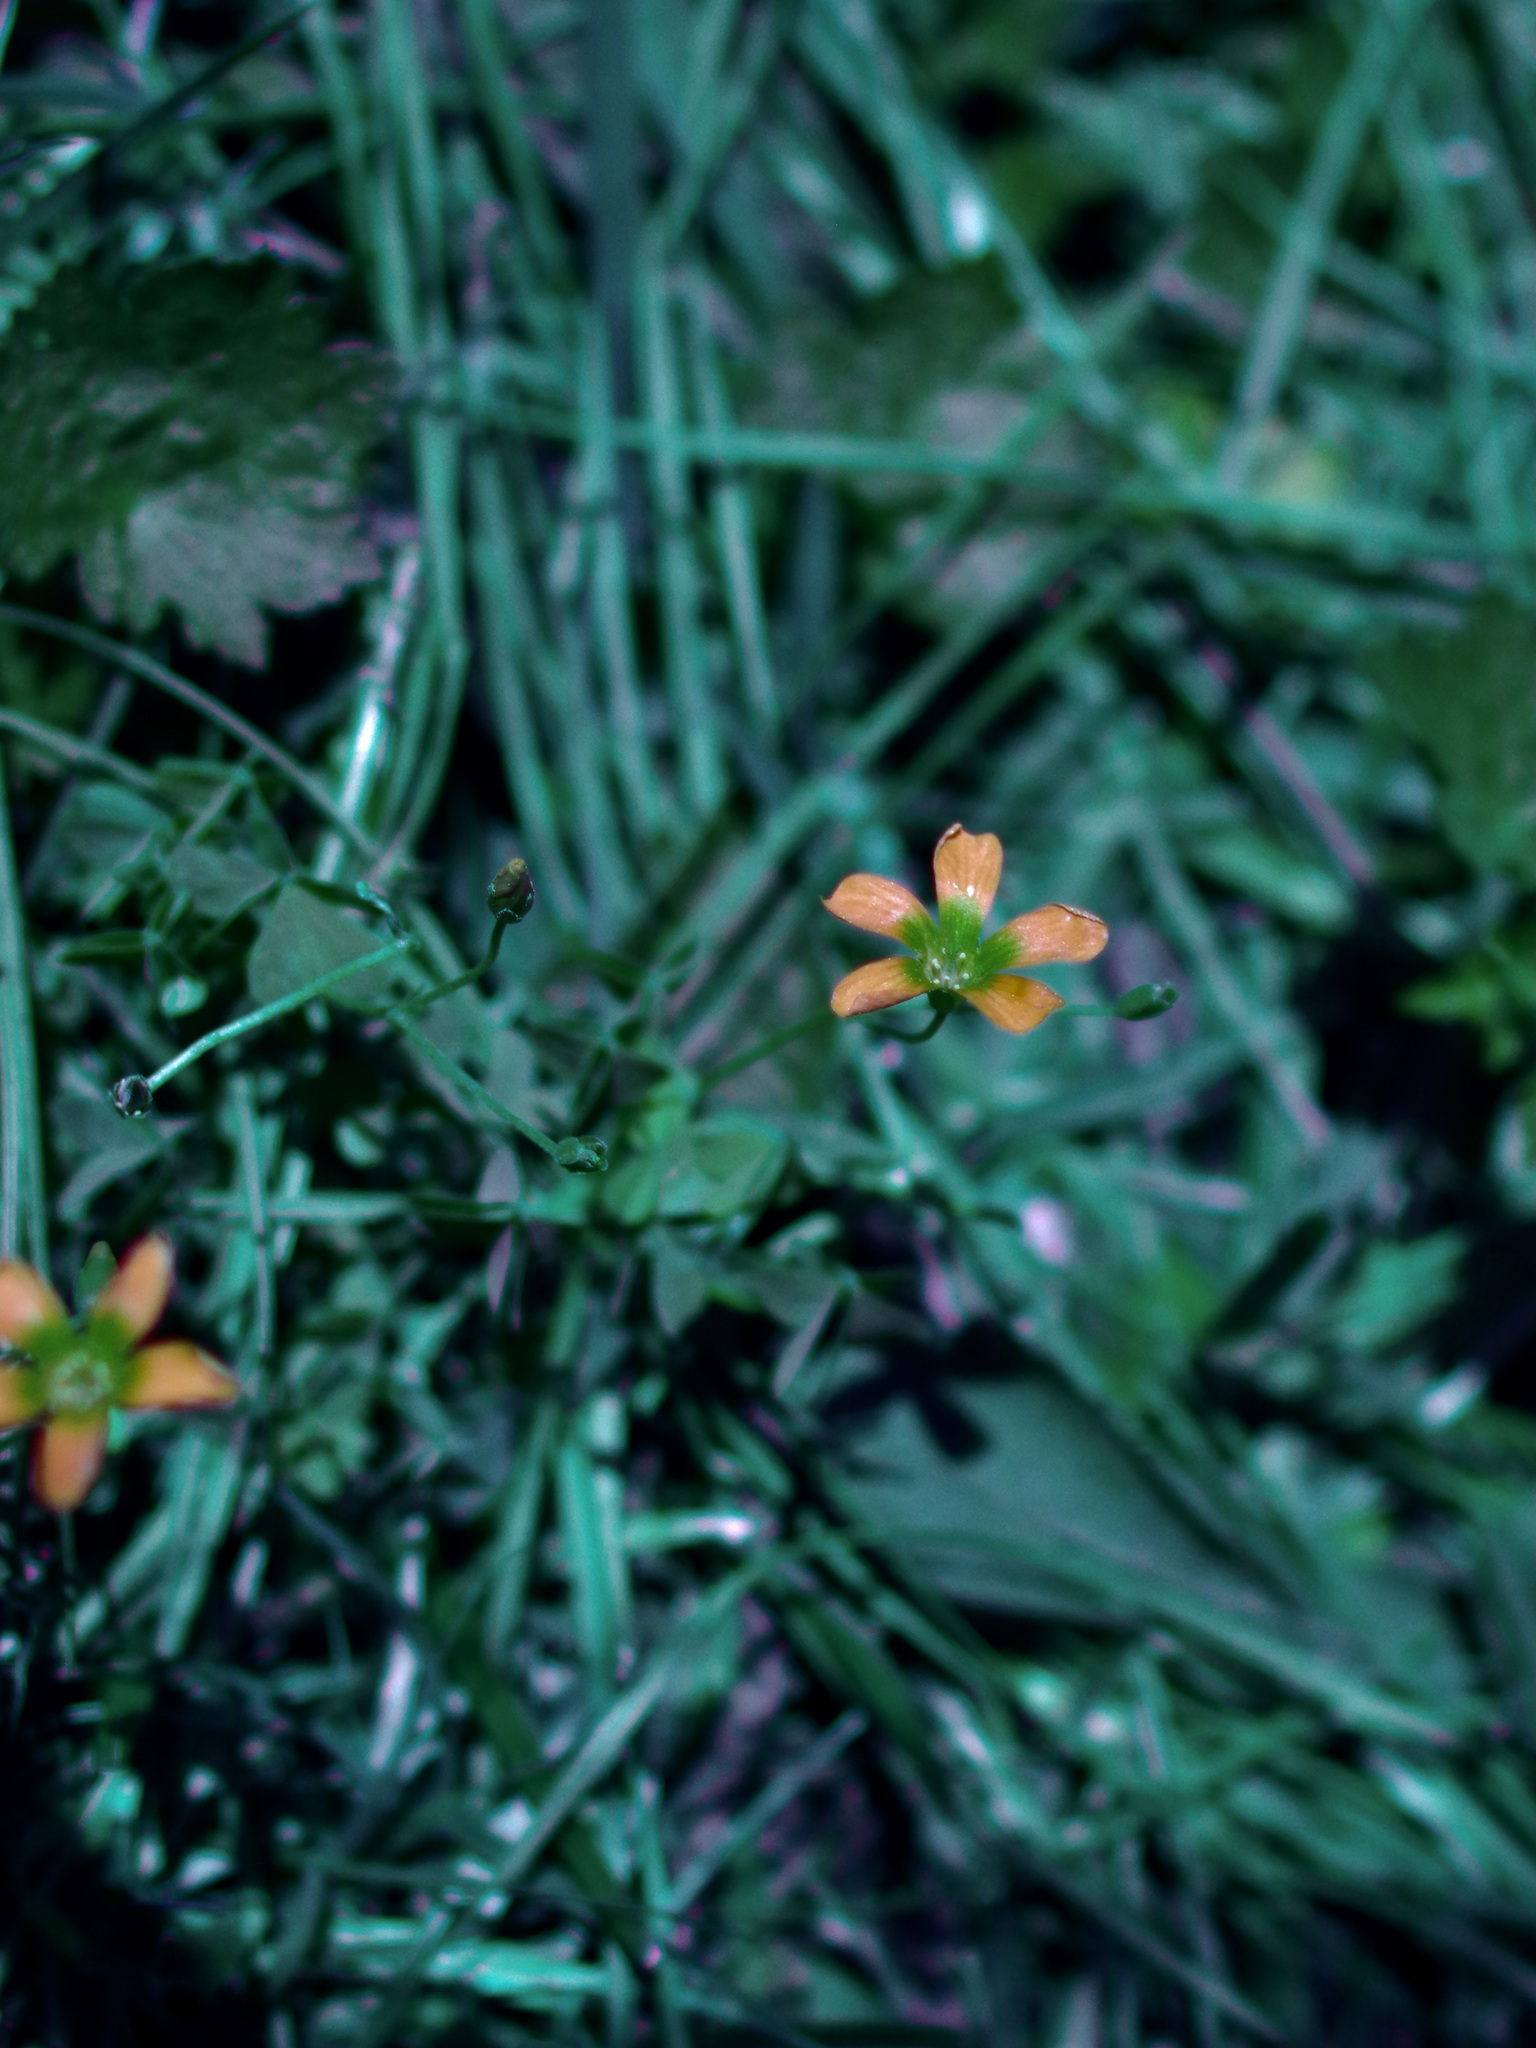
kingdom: Plantae
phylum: Tracheophyta
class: Magnoliopsida
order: Oxalidales
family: Oxalidaceae
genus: Oxalis
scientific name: Oxalis dillenii
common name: Sussex yellow-sorrel
